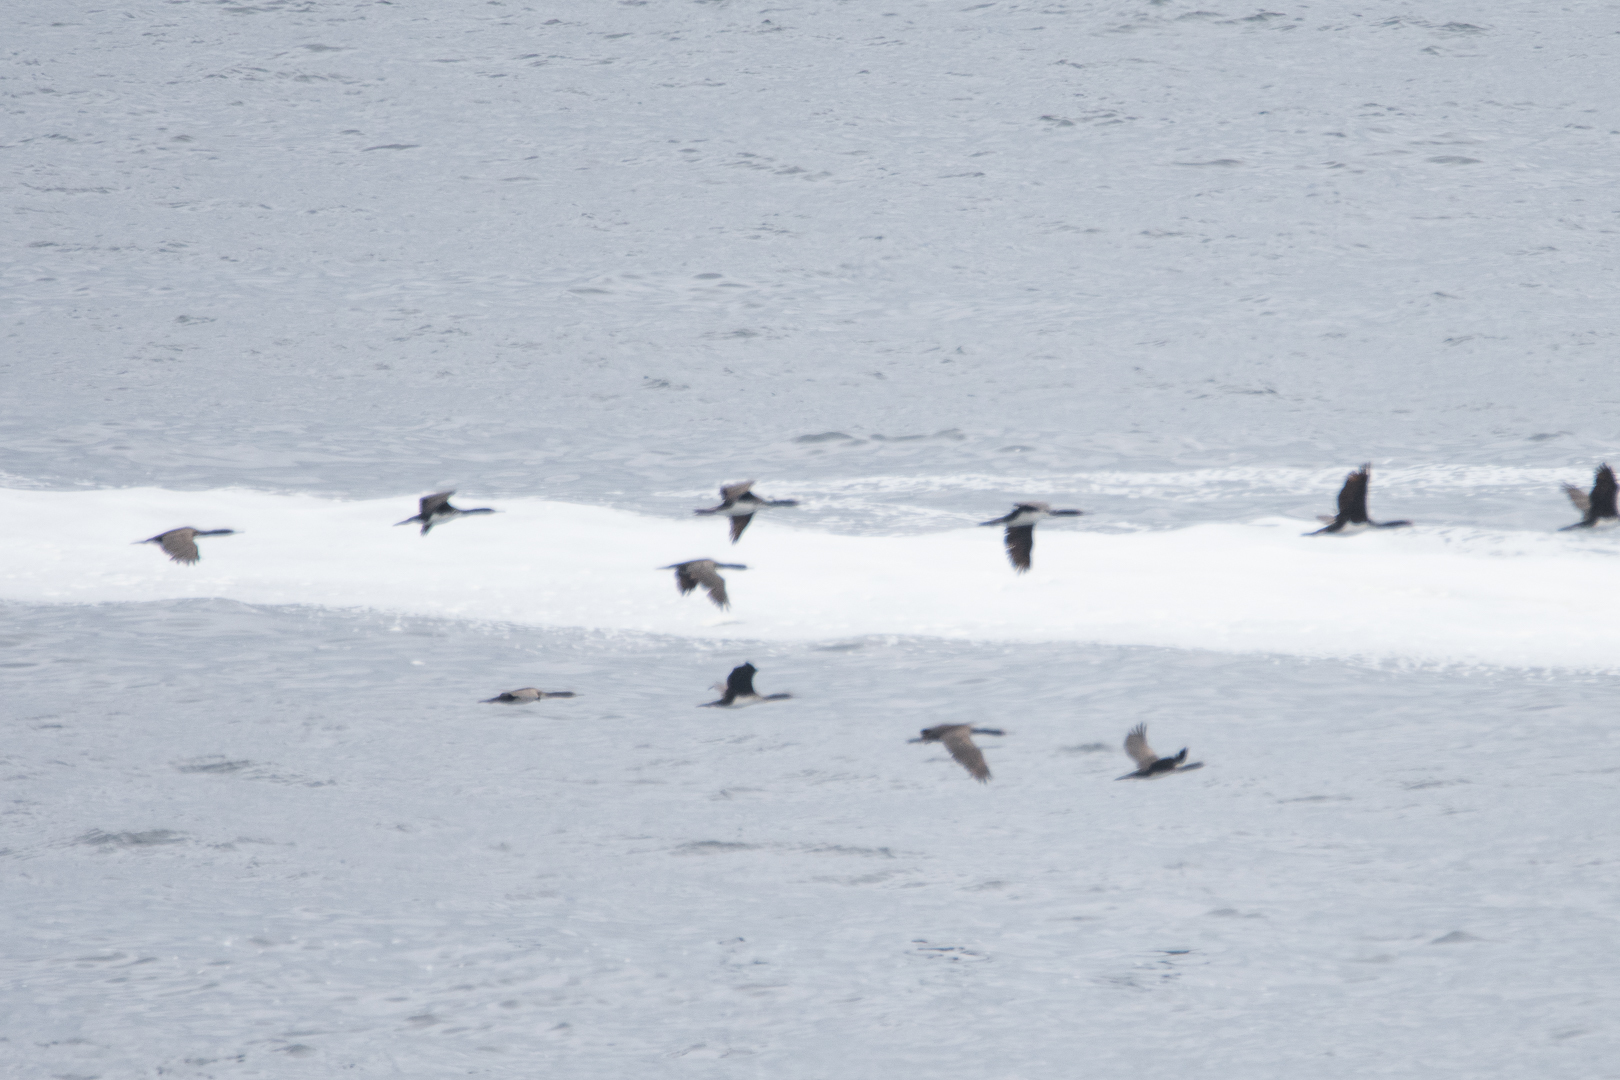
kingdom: Animalia
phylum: Chordata
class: Aves
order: Suliformes
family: Phalacrocoracidae
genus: Leucocarbo
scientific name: Leucocarbo bougainvillii
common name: Guanay cormorant
